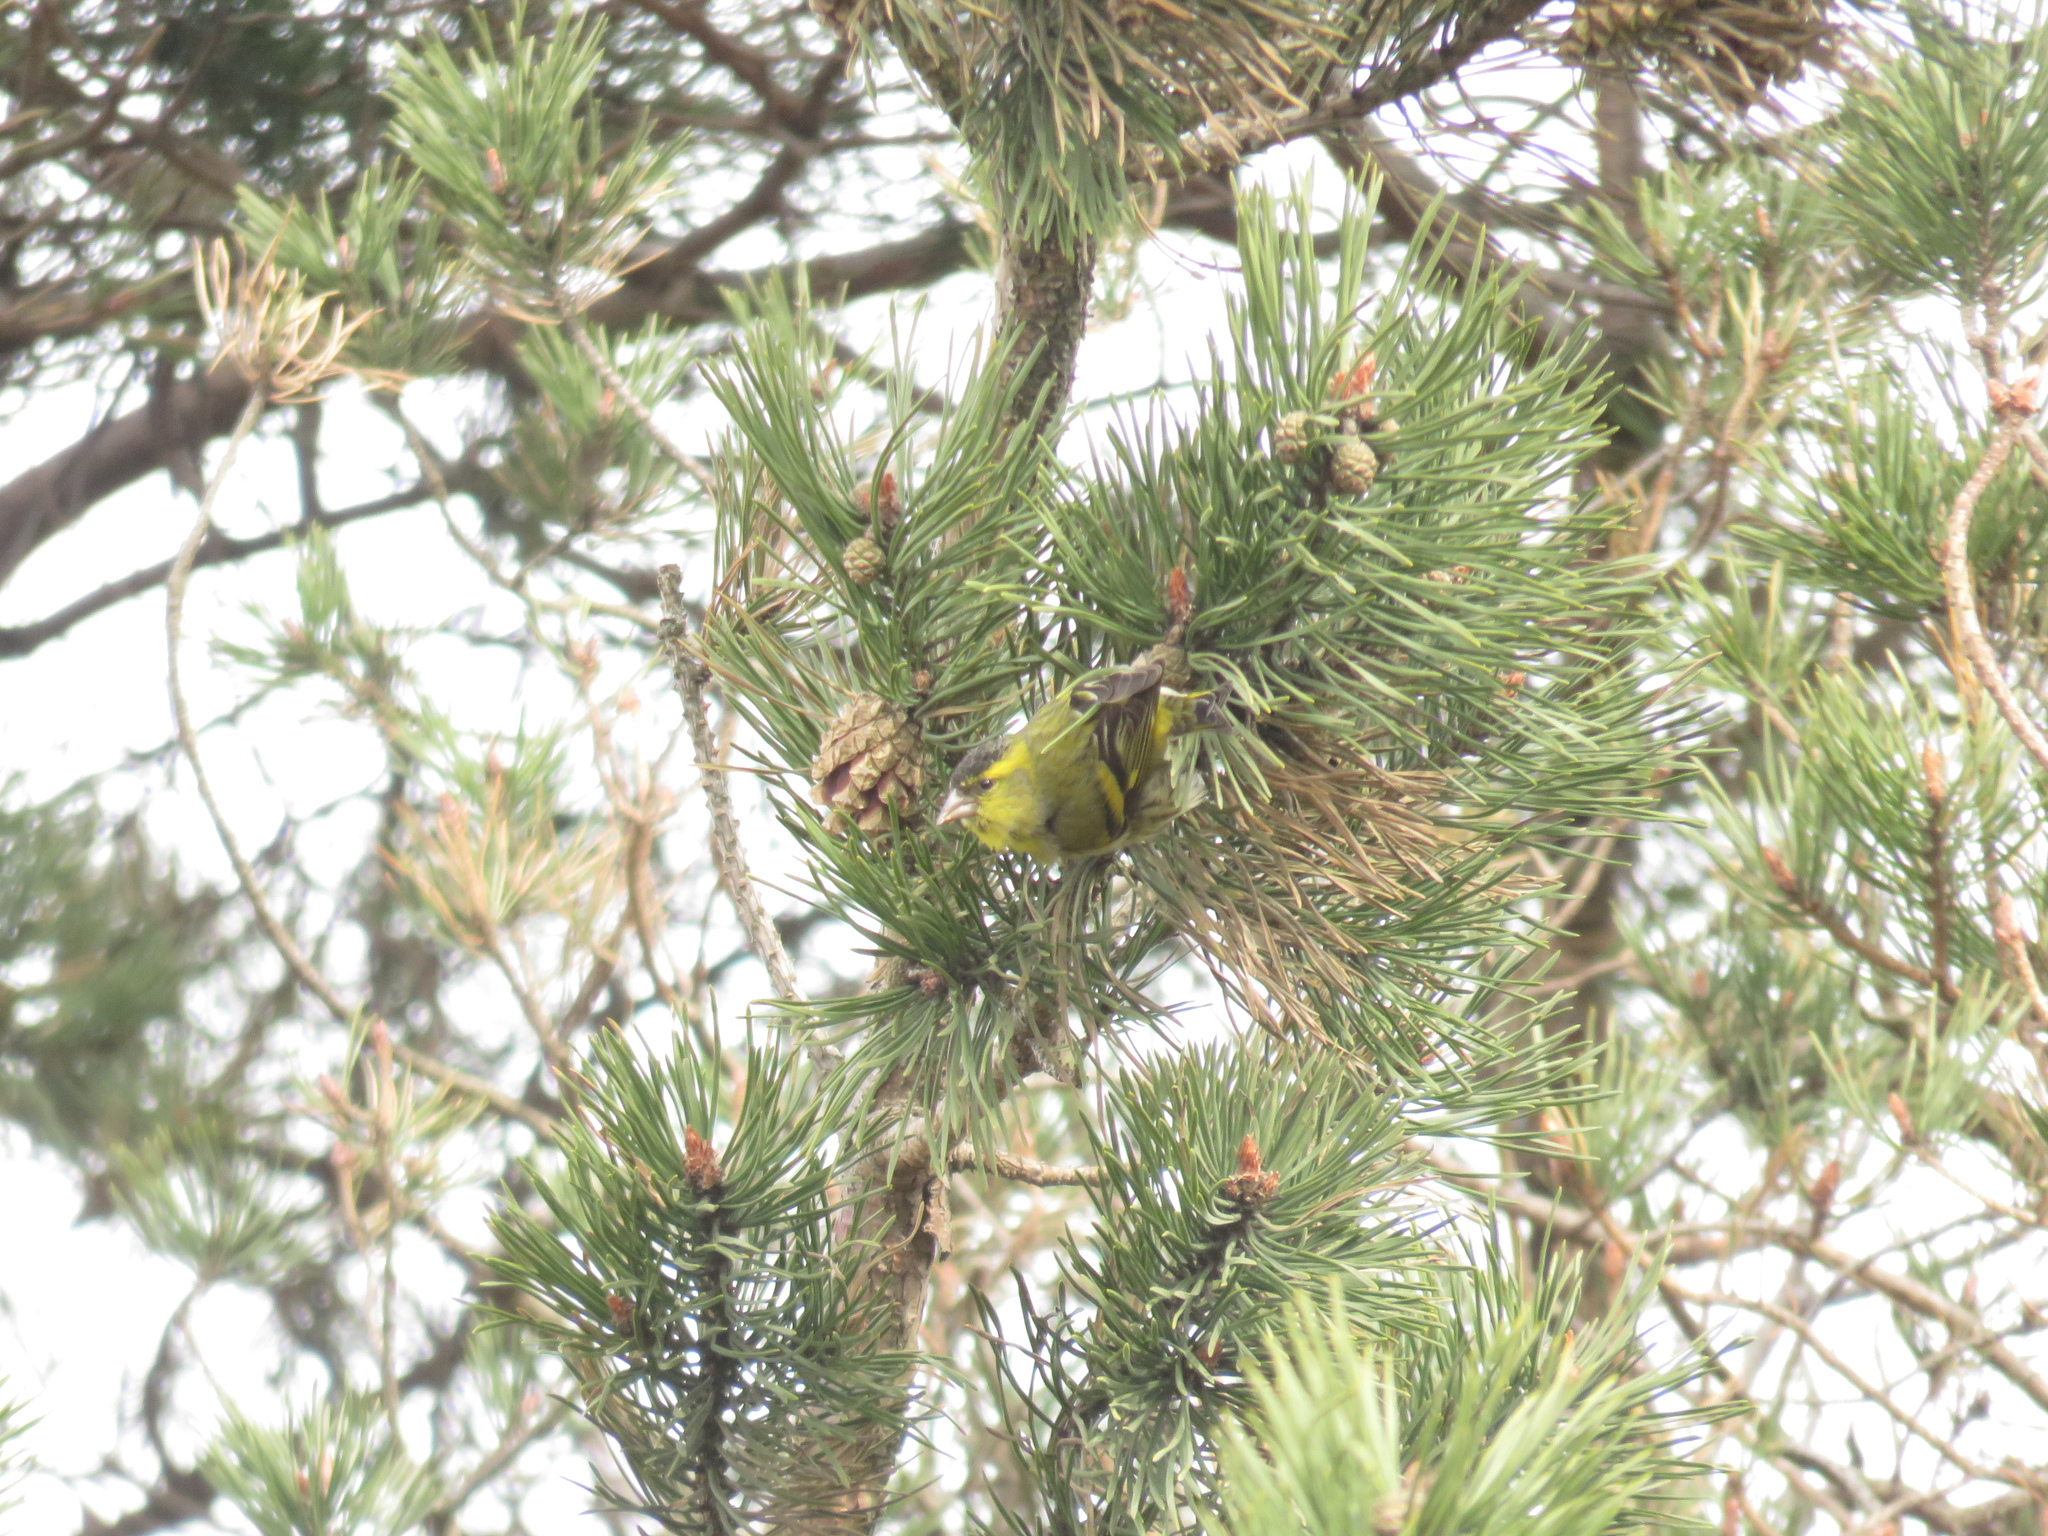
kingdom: Animalia
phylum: Chordata
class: Aves
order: Passeriformes
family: Fringillidae
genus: Spinus
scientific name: Spinus spinus
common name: Eurasian siskin
